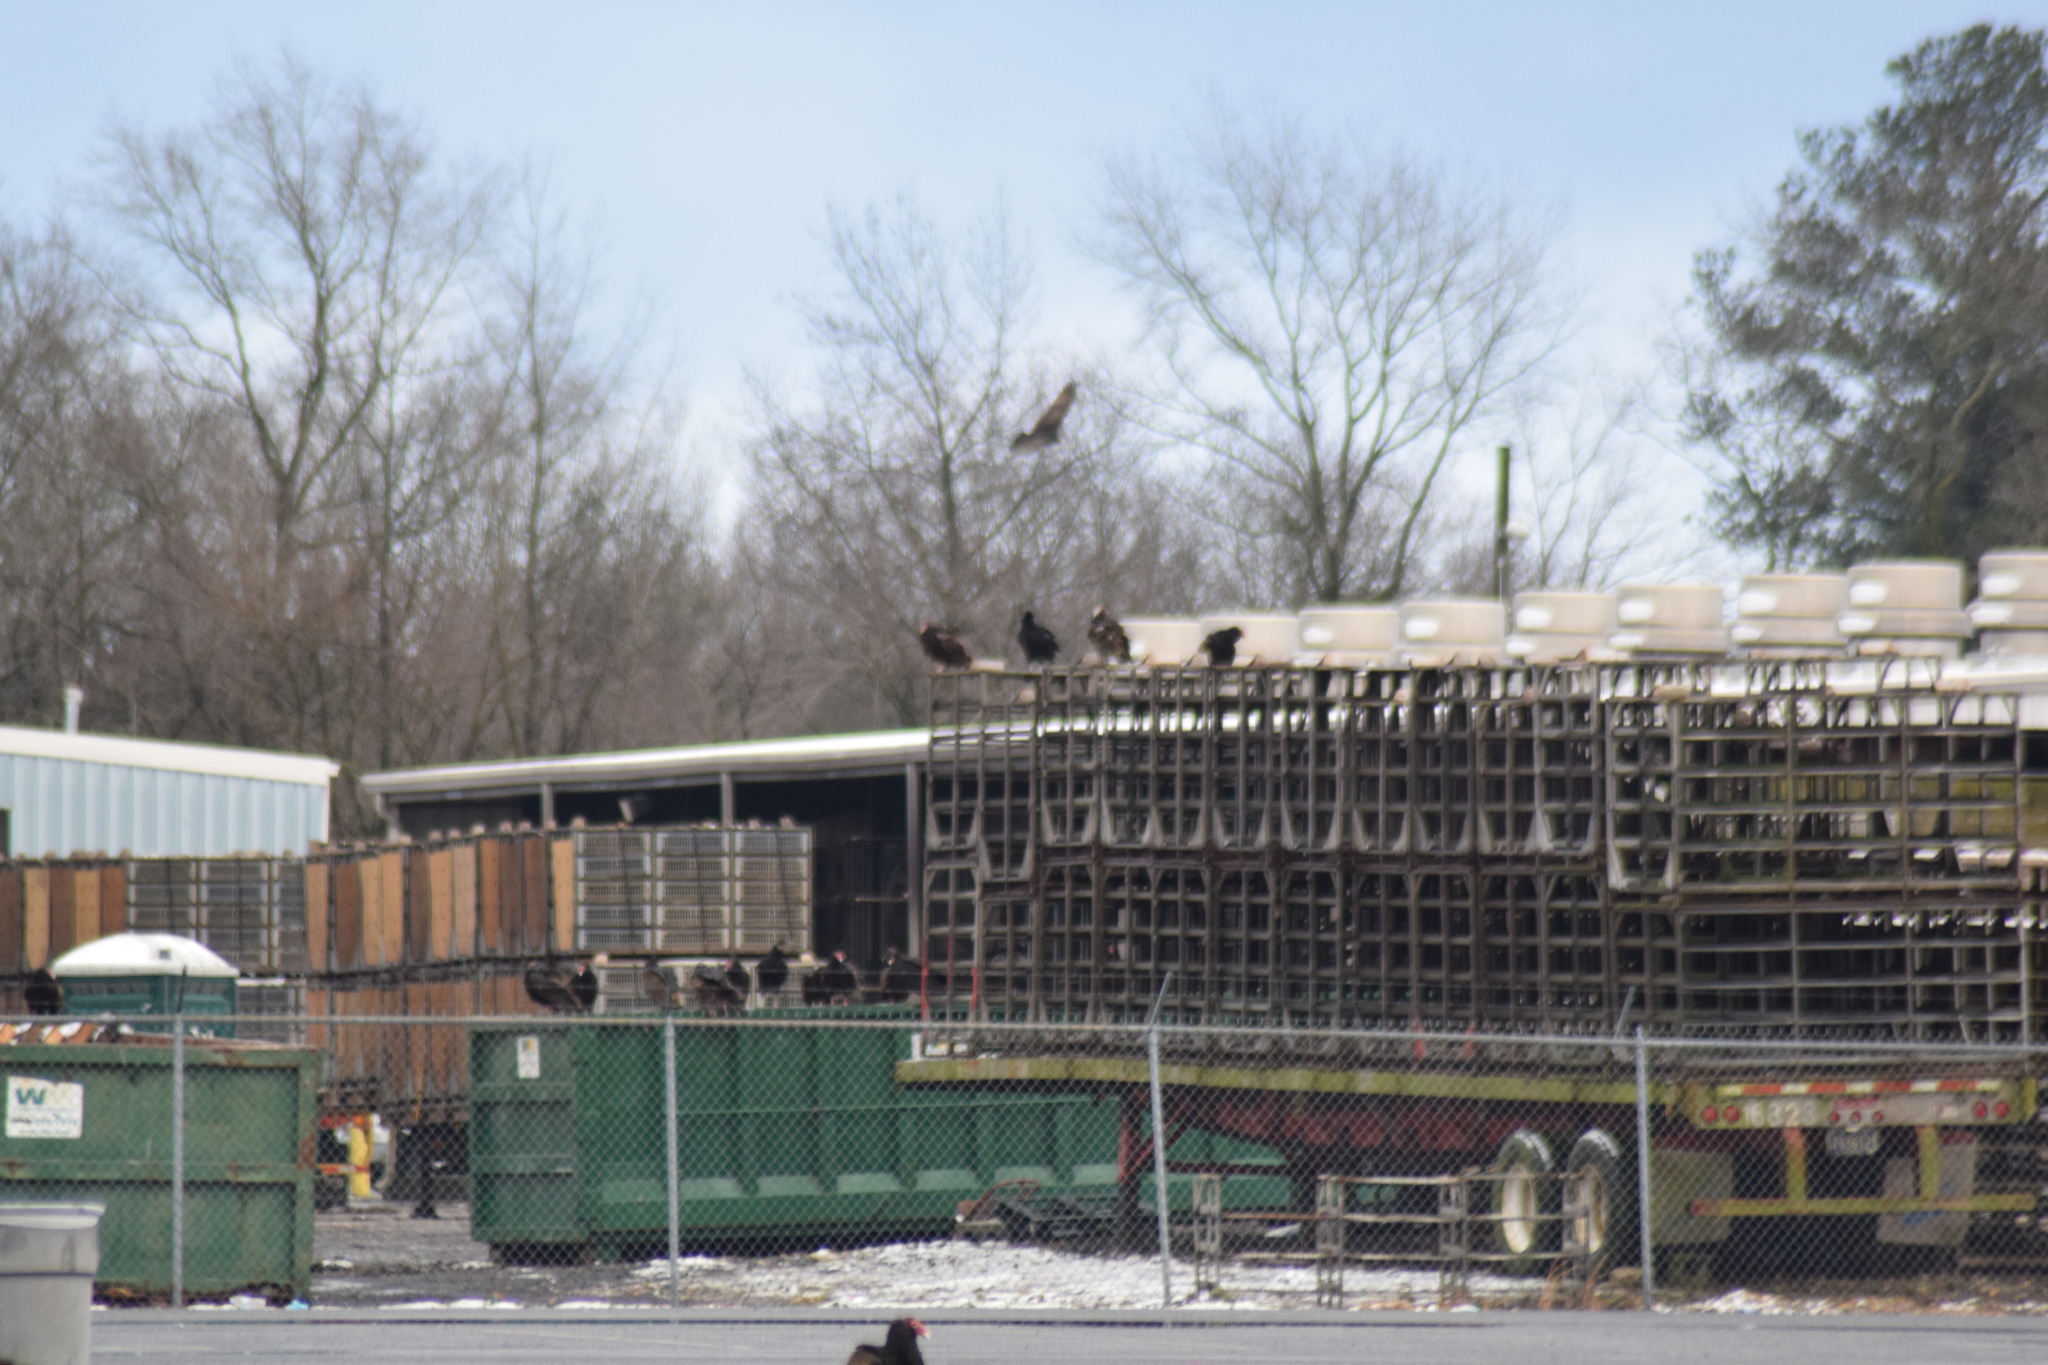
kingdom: Animalia
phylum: Chordata
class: Aves
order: Accipitriformes
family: Cathartidae
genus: Cathartes
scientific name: Cathartes aura
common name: Turkey vulture
